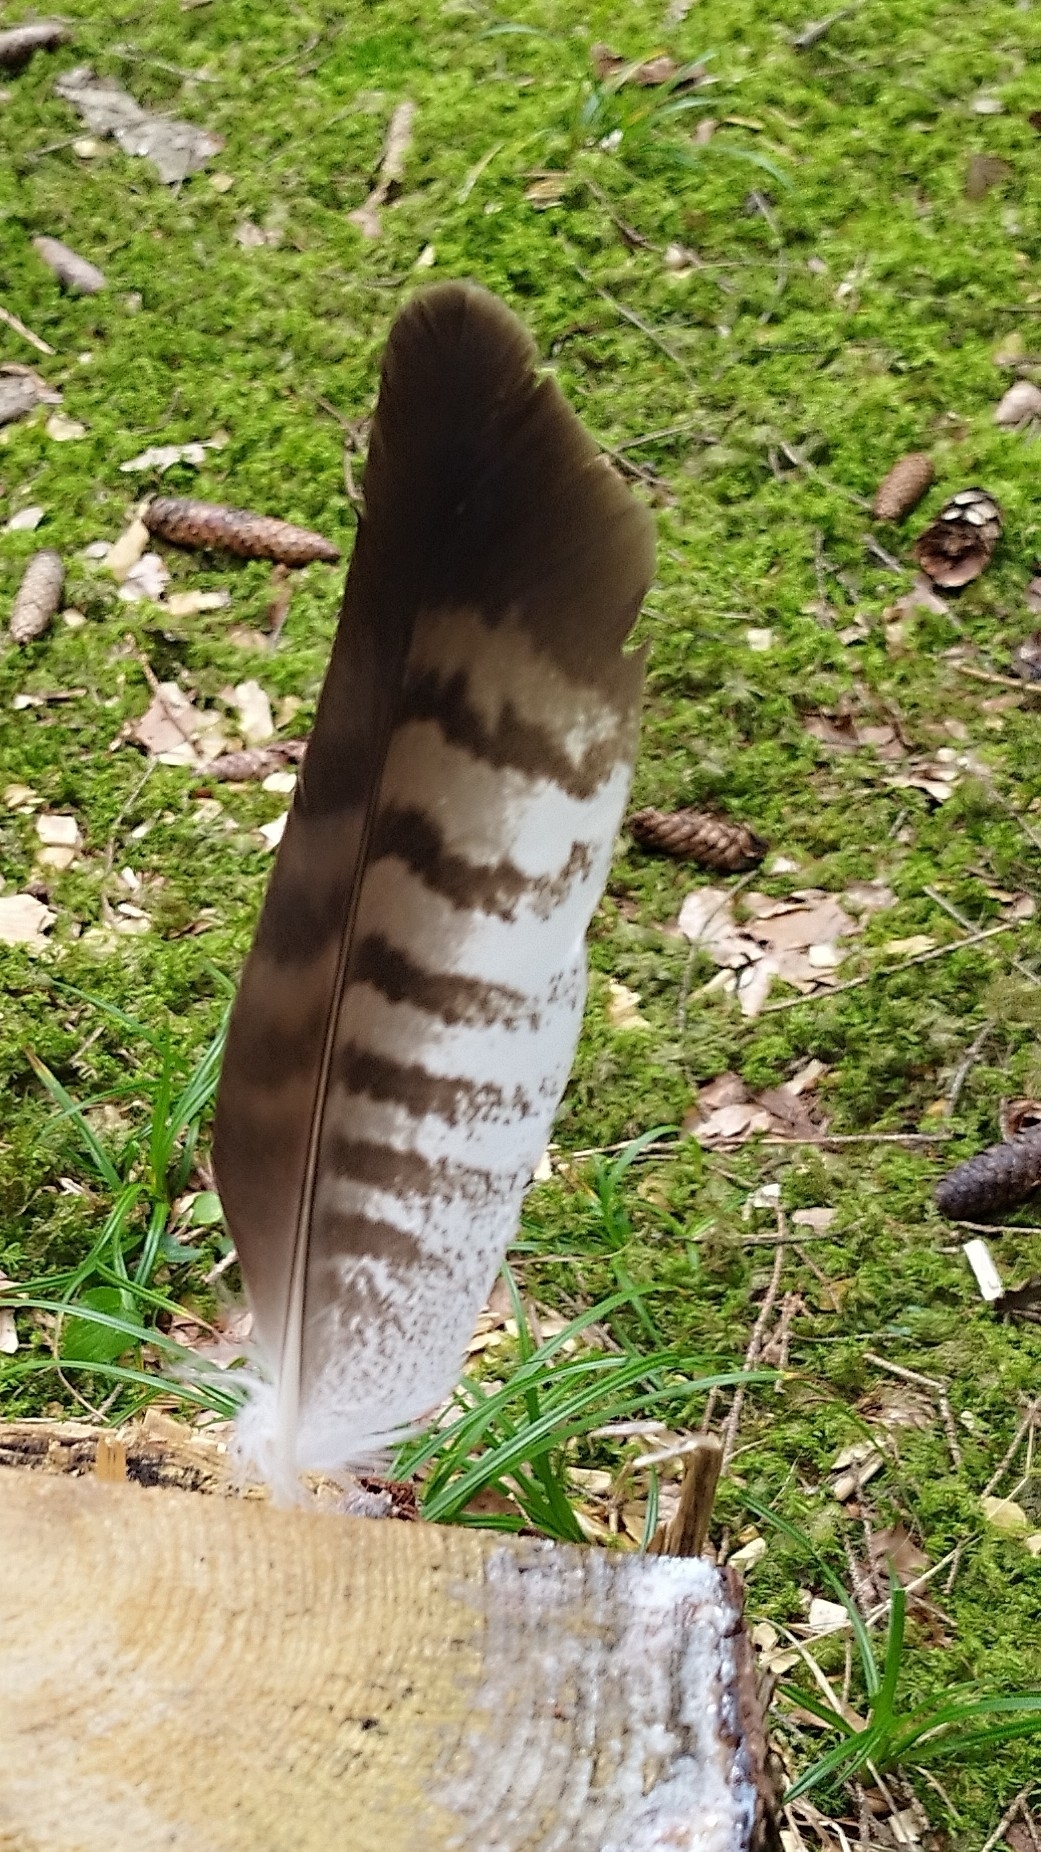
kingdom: Animalia
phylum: Chordata
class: Aves
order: Accipitriformes
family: Accipitridae
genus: Buteo
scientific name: Buteo buteo
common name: Common buzzard
